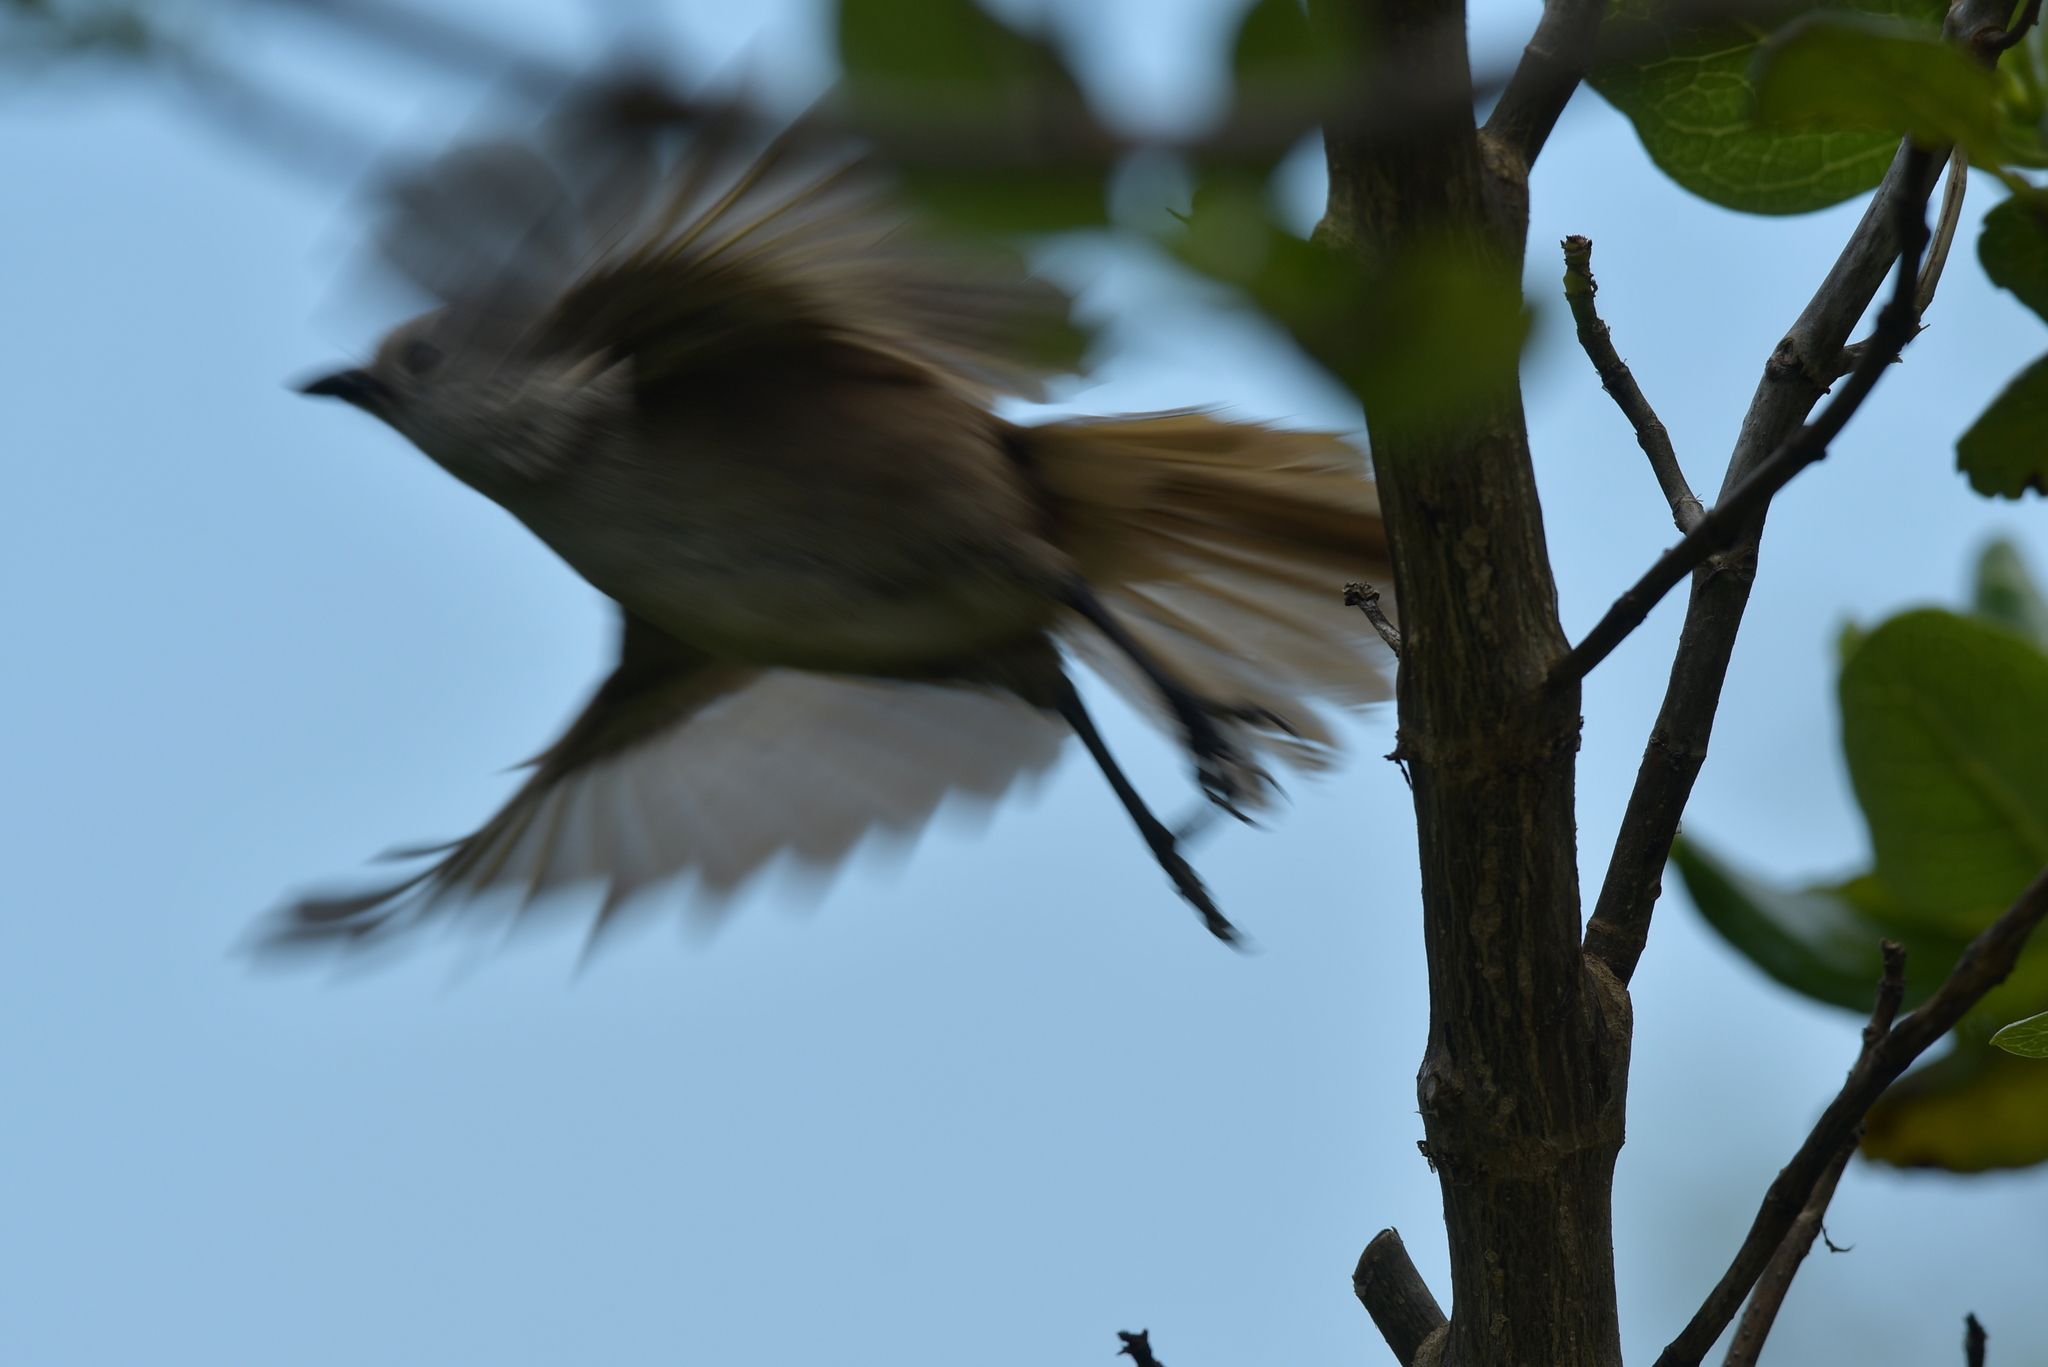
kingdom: Animalia
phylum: Chordata
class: Aves
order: Passeriformes
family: Acanthizidae
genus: Mohoua
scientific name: Mohoua albicilla
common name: Whitehead
